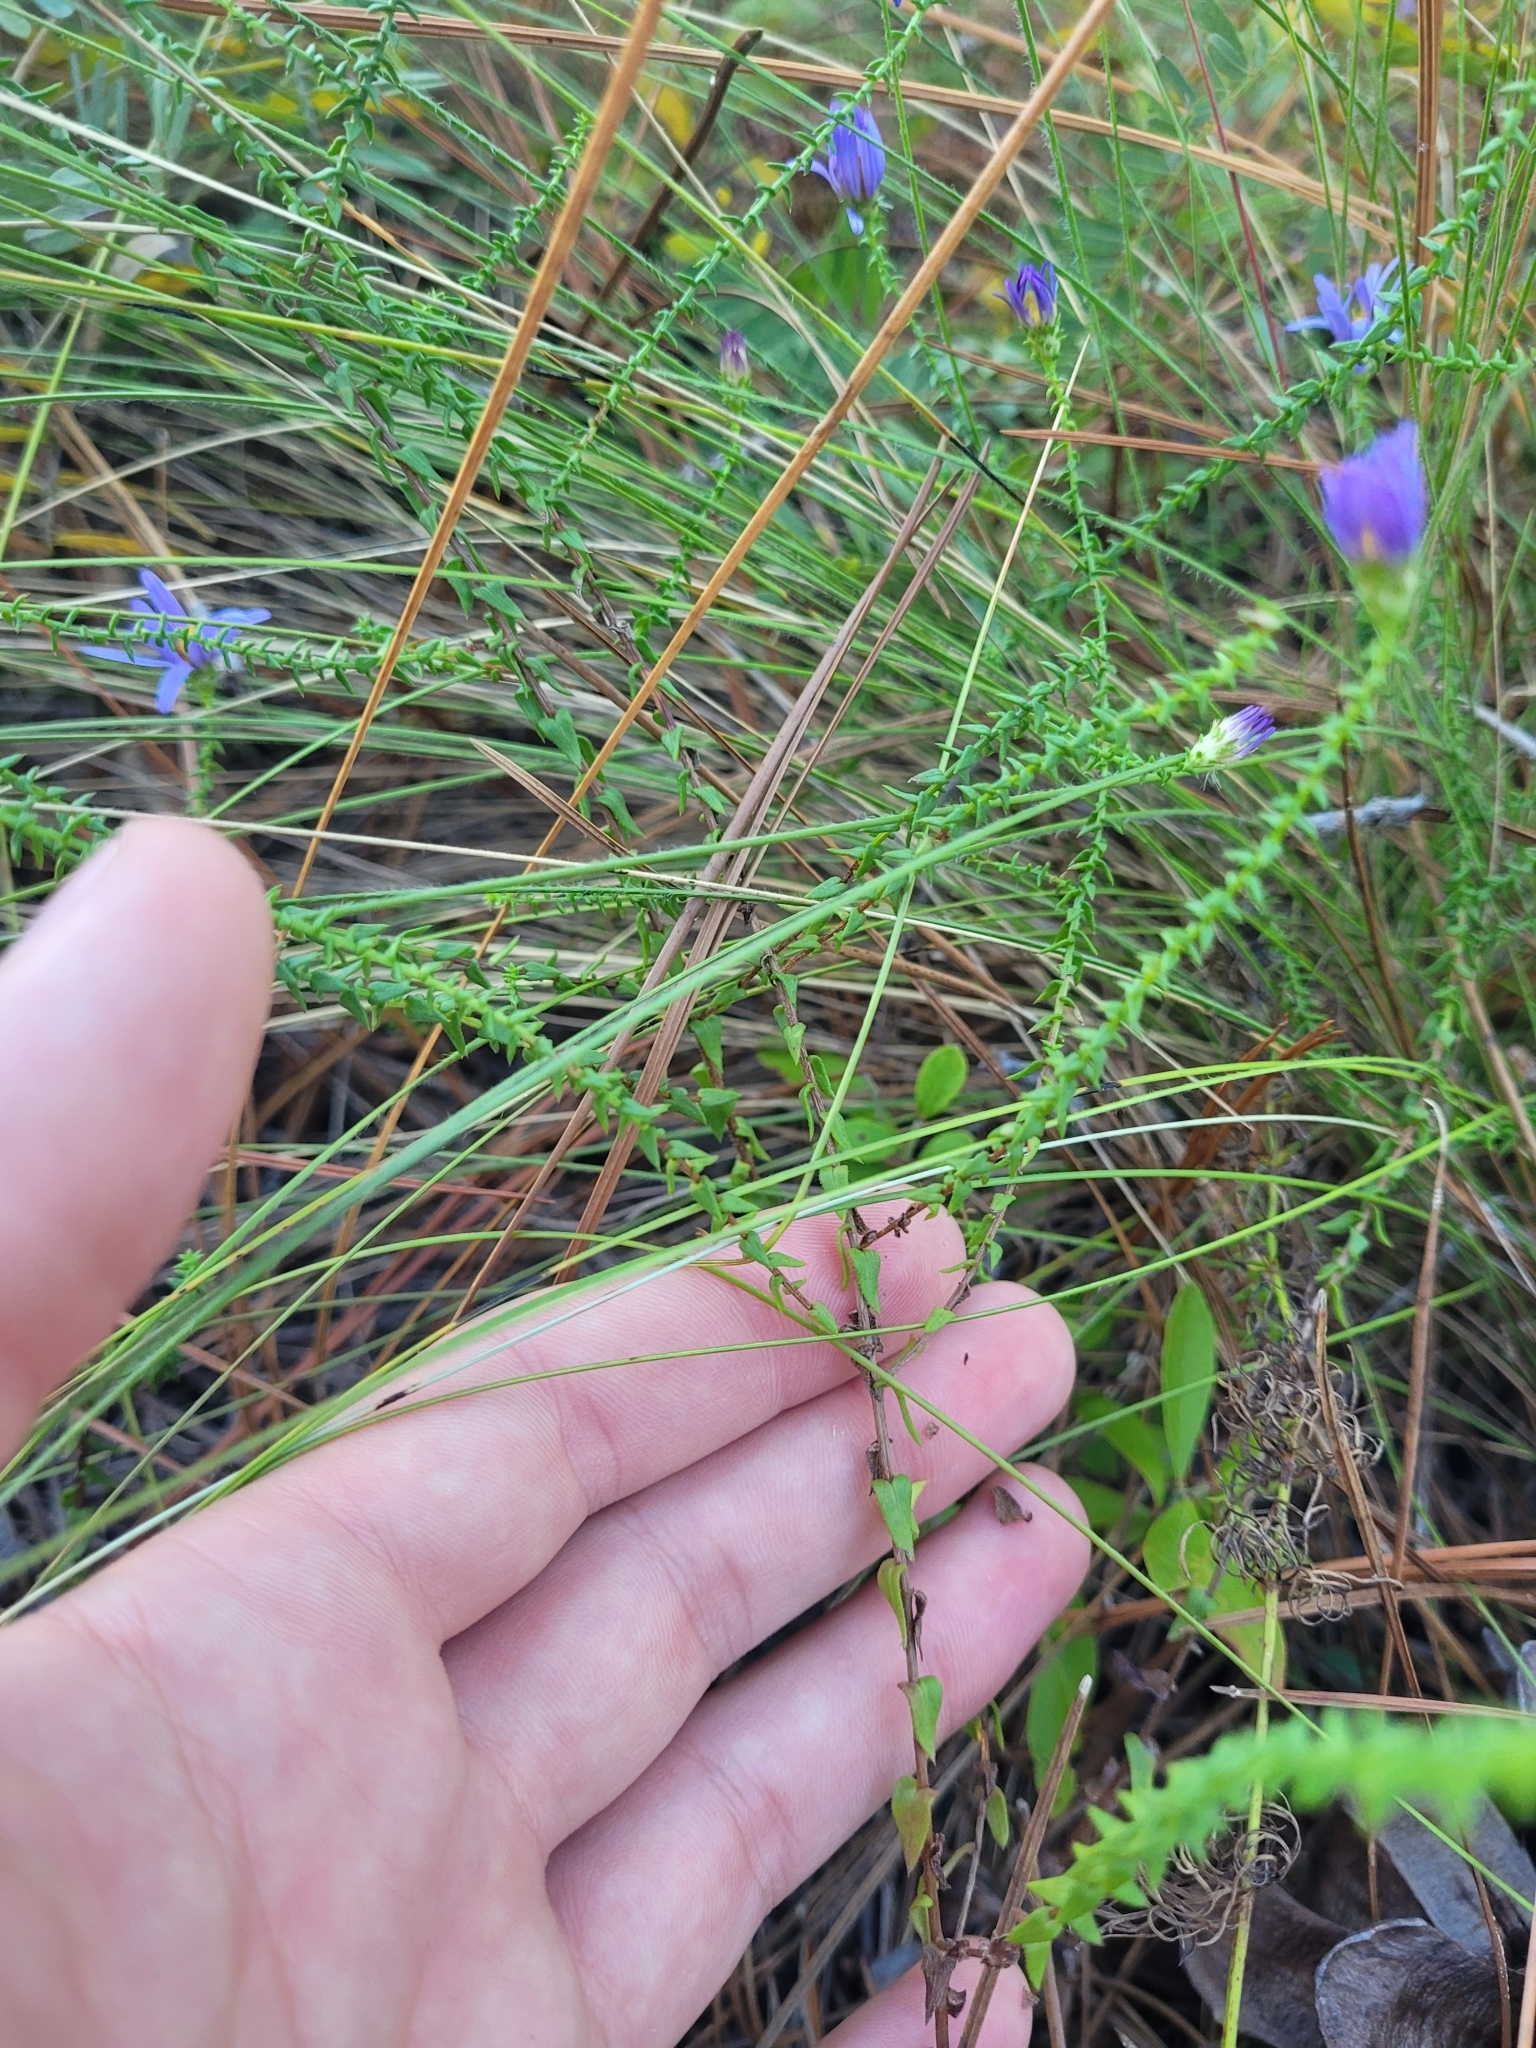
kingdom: Plantae
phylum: Tracheophyta
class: Magnoliopsida
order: Asterales
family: Asteraceae
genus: Symphyotrichum
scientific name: Symphyotrichum walteri
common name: Walter's aster
